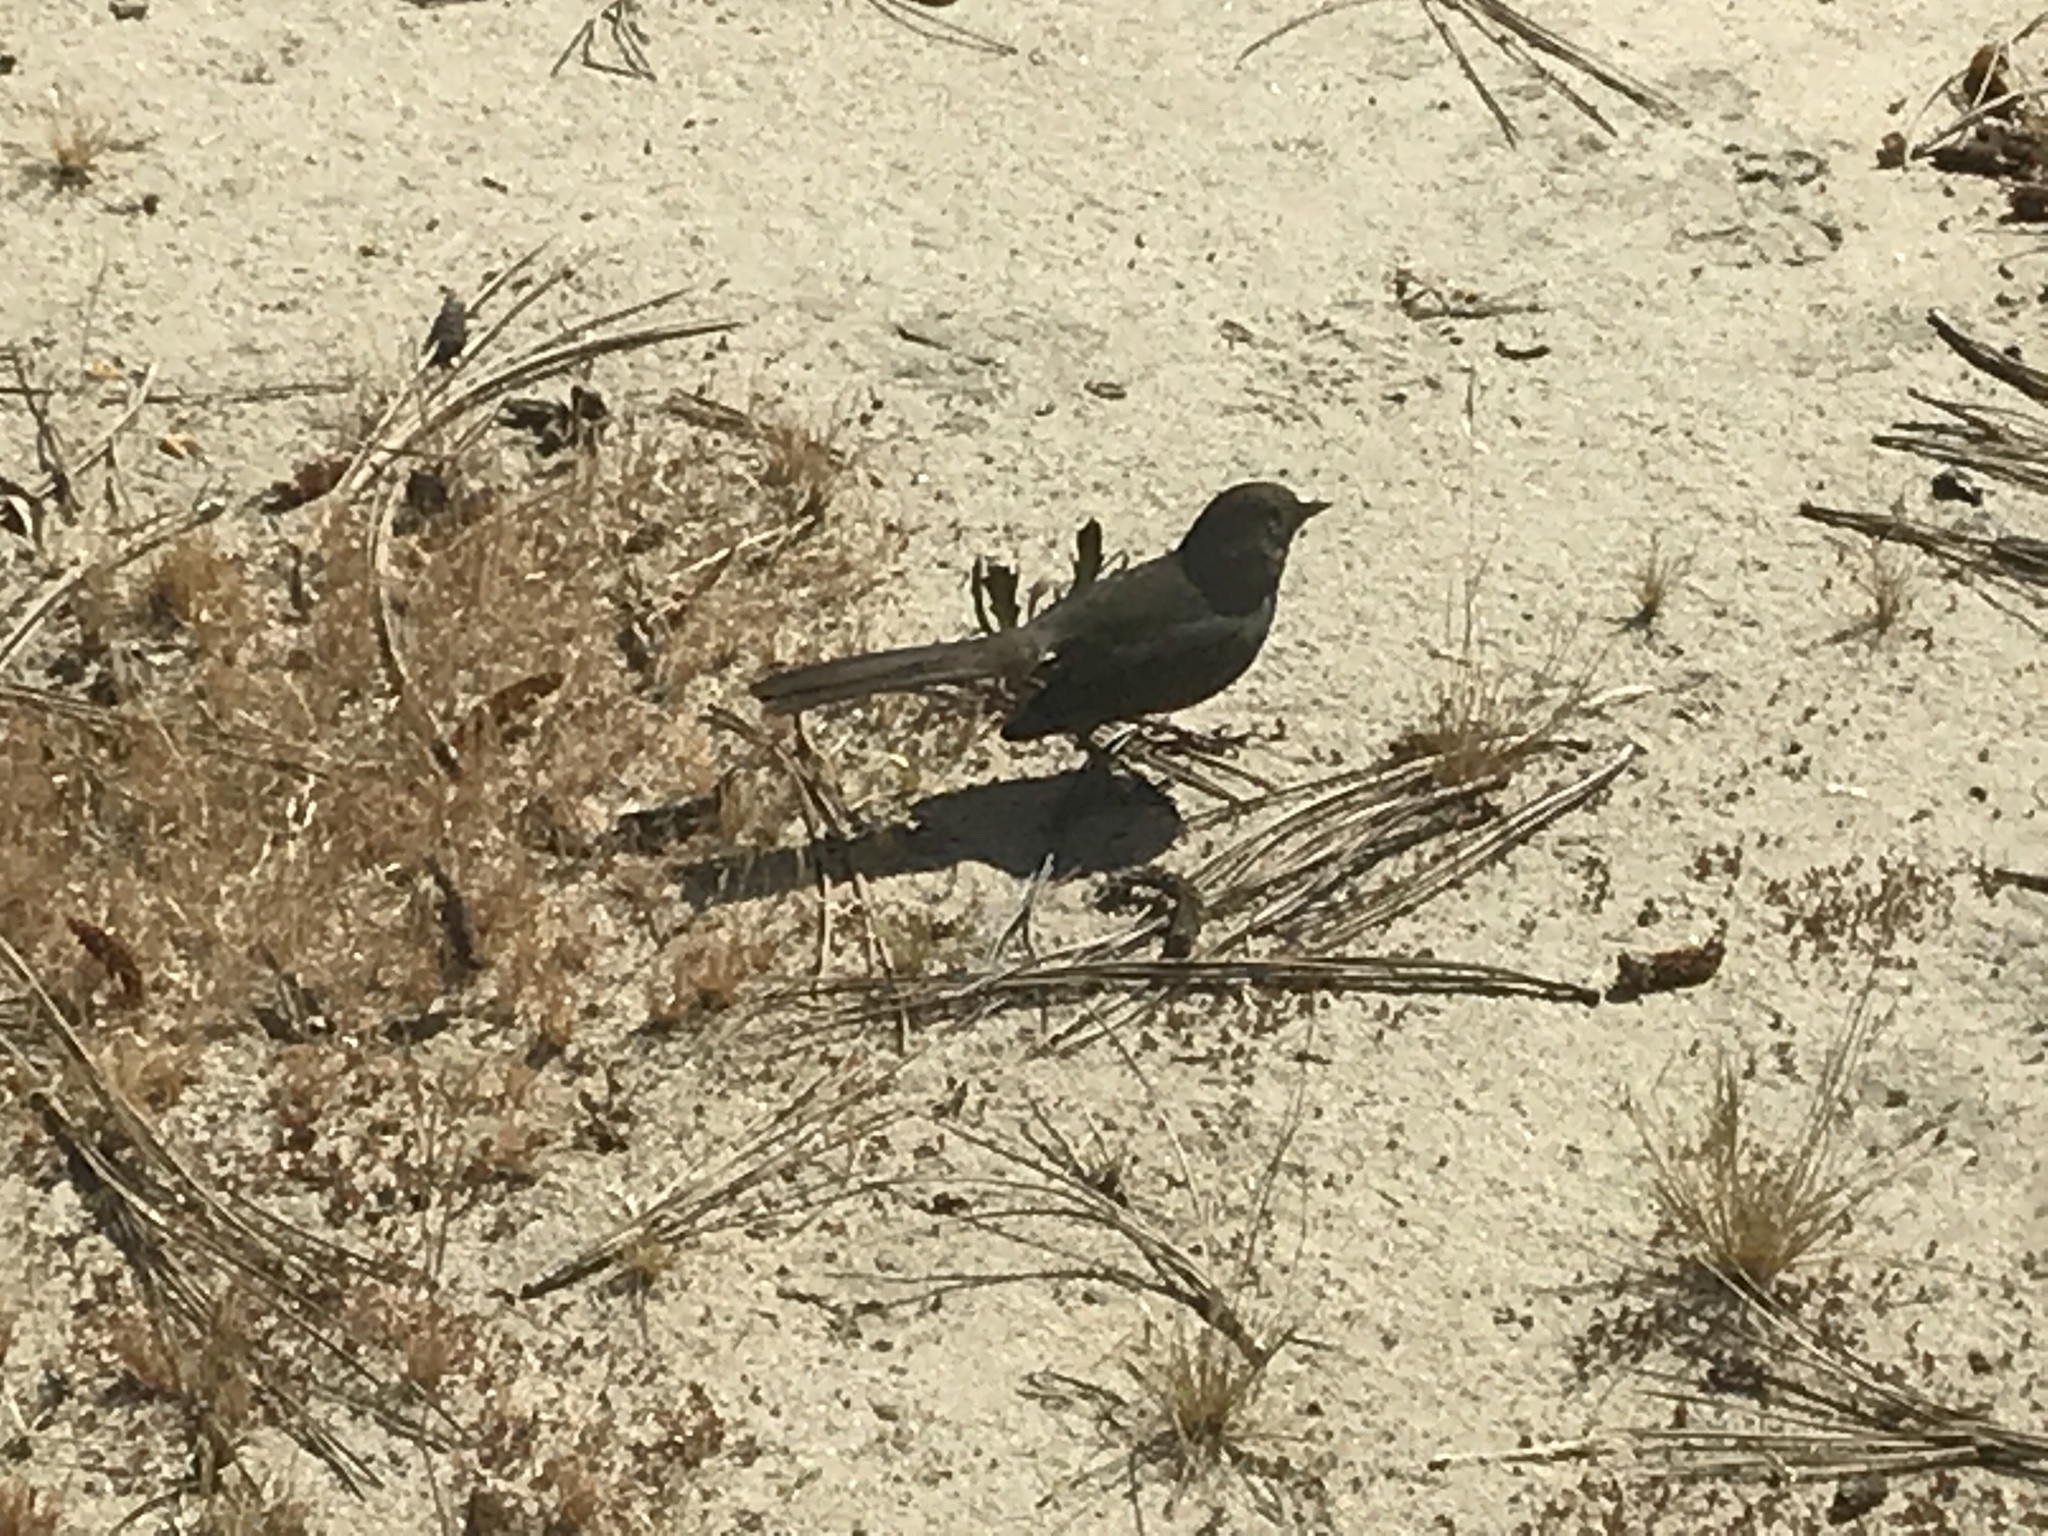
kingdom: Animalia
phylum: Chordata
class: Aves
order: Passeriformes
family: Passerellidae
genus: Melozone
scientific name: Melozone crissalis
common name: California towhee
